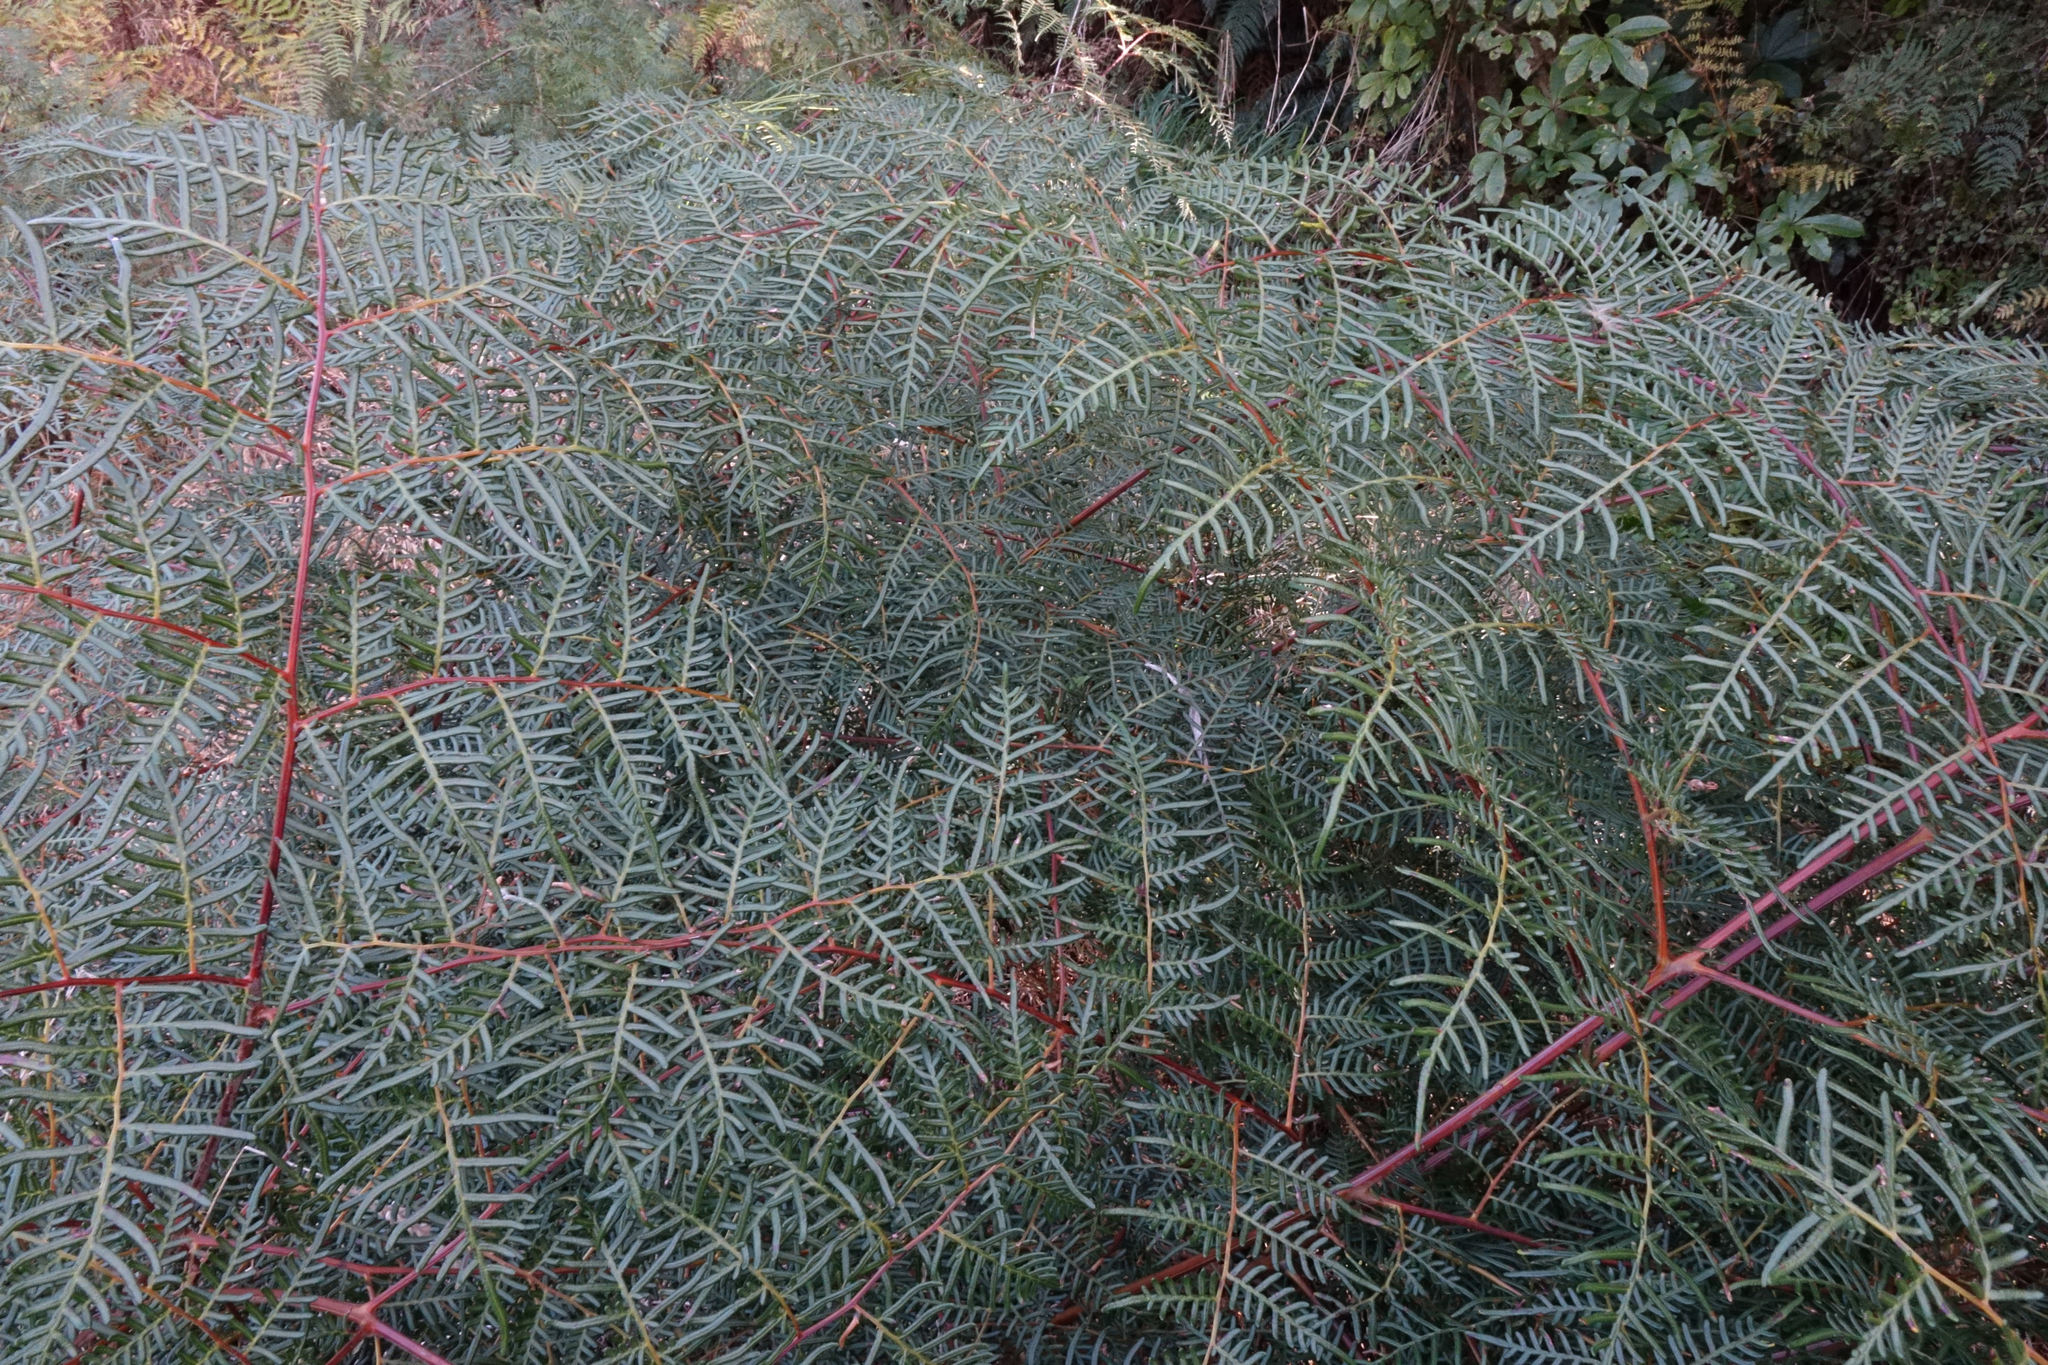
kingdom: Plantae
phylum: Tracheophyta
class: Polypodiopsida
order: Polypodiales
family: Dennstaedtiaceae
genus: Pteridium
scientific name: Pteridium esculentum
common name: Bracken fern
